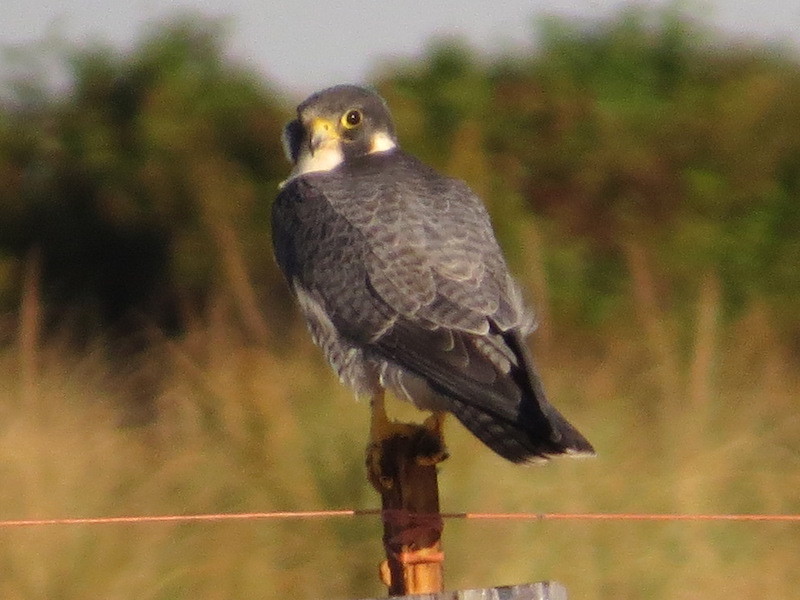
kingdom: Animalia
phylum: Chordata
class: Aves
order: Falconiformes
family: Falconidae
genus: Falco
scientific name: Falco peregrinus
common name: Peregrine falcon
